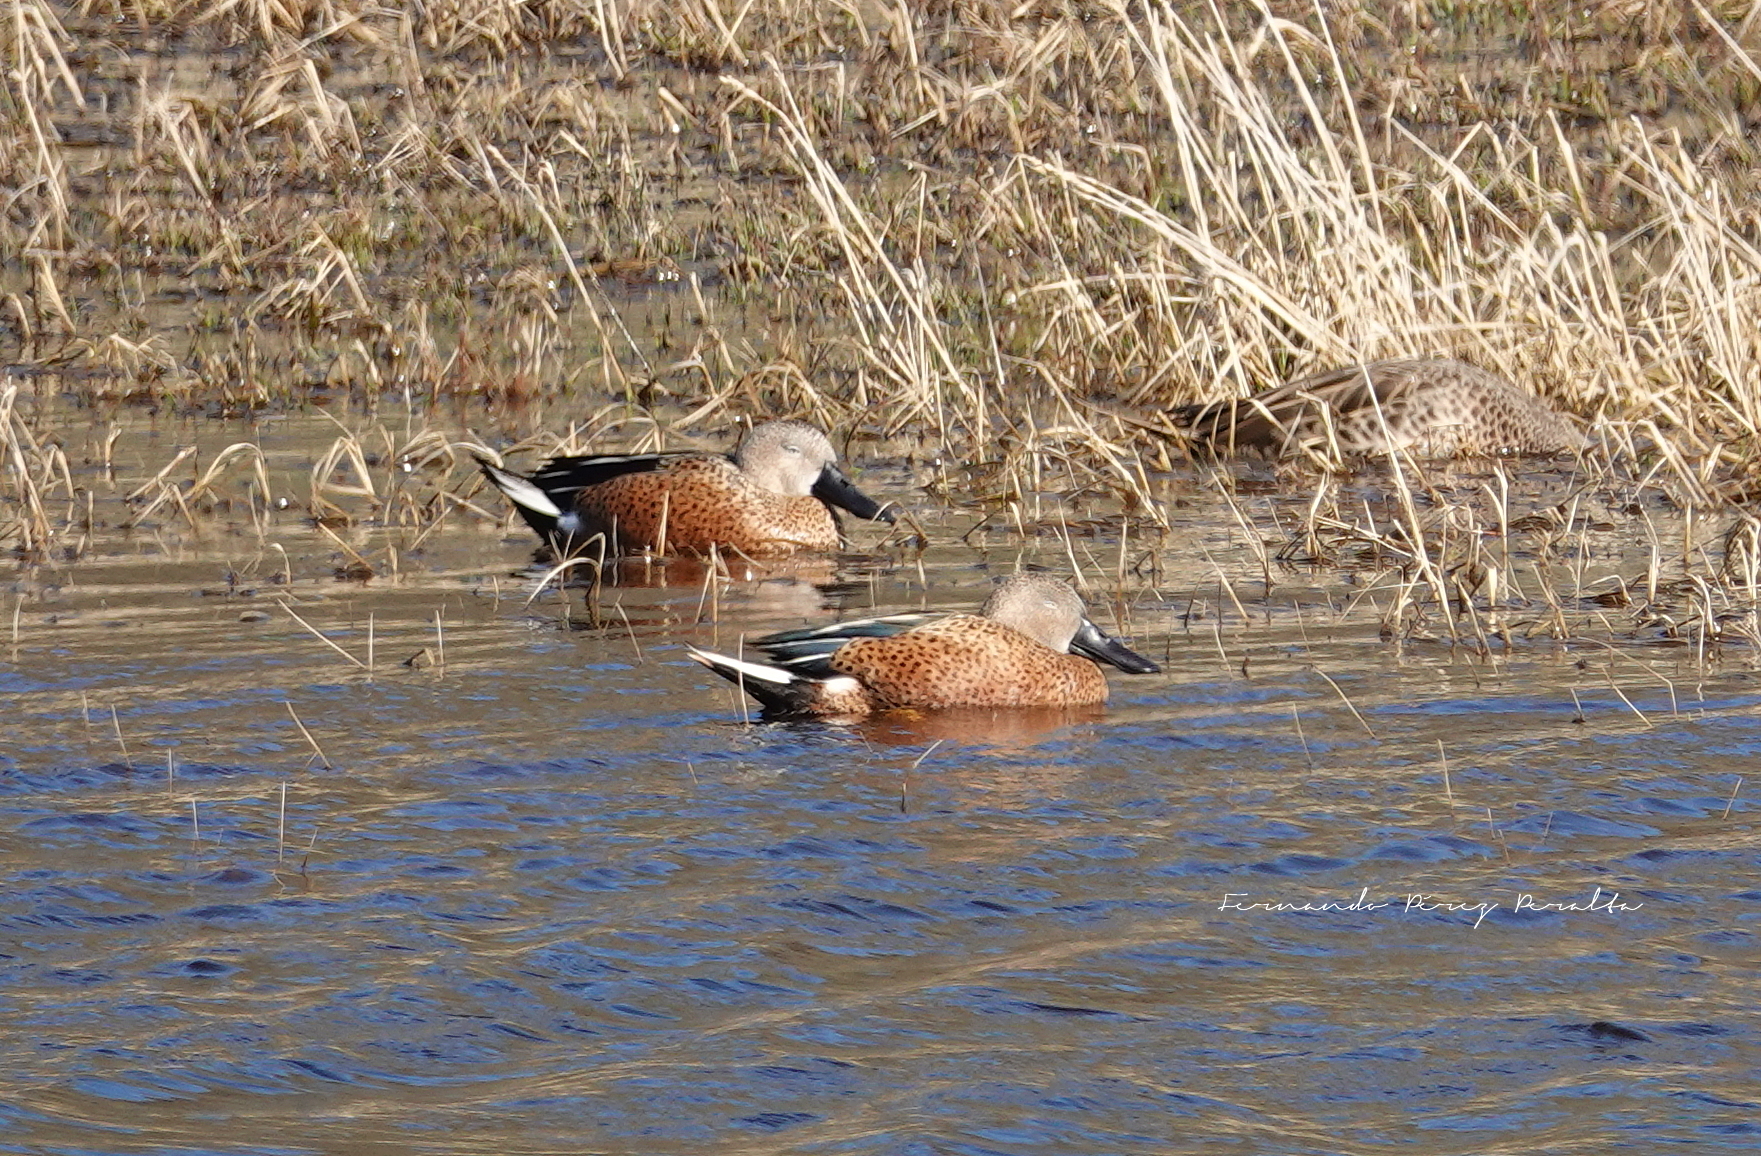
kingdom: Animalia
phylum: Chordata
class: Aves
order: Anseriformes
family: Anatidae
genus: Spatula
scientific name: Spatula platalea
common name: Red shoveler
